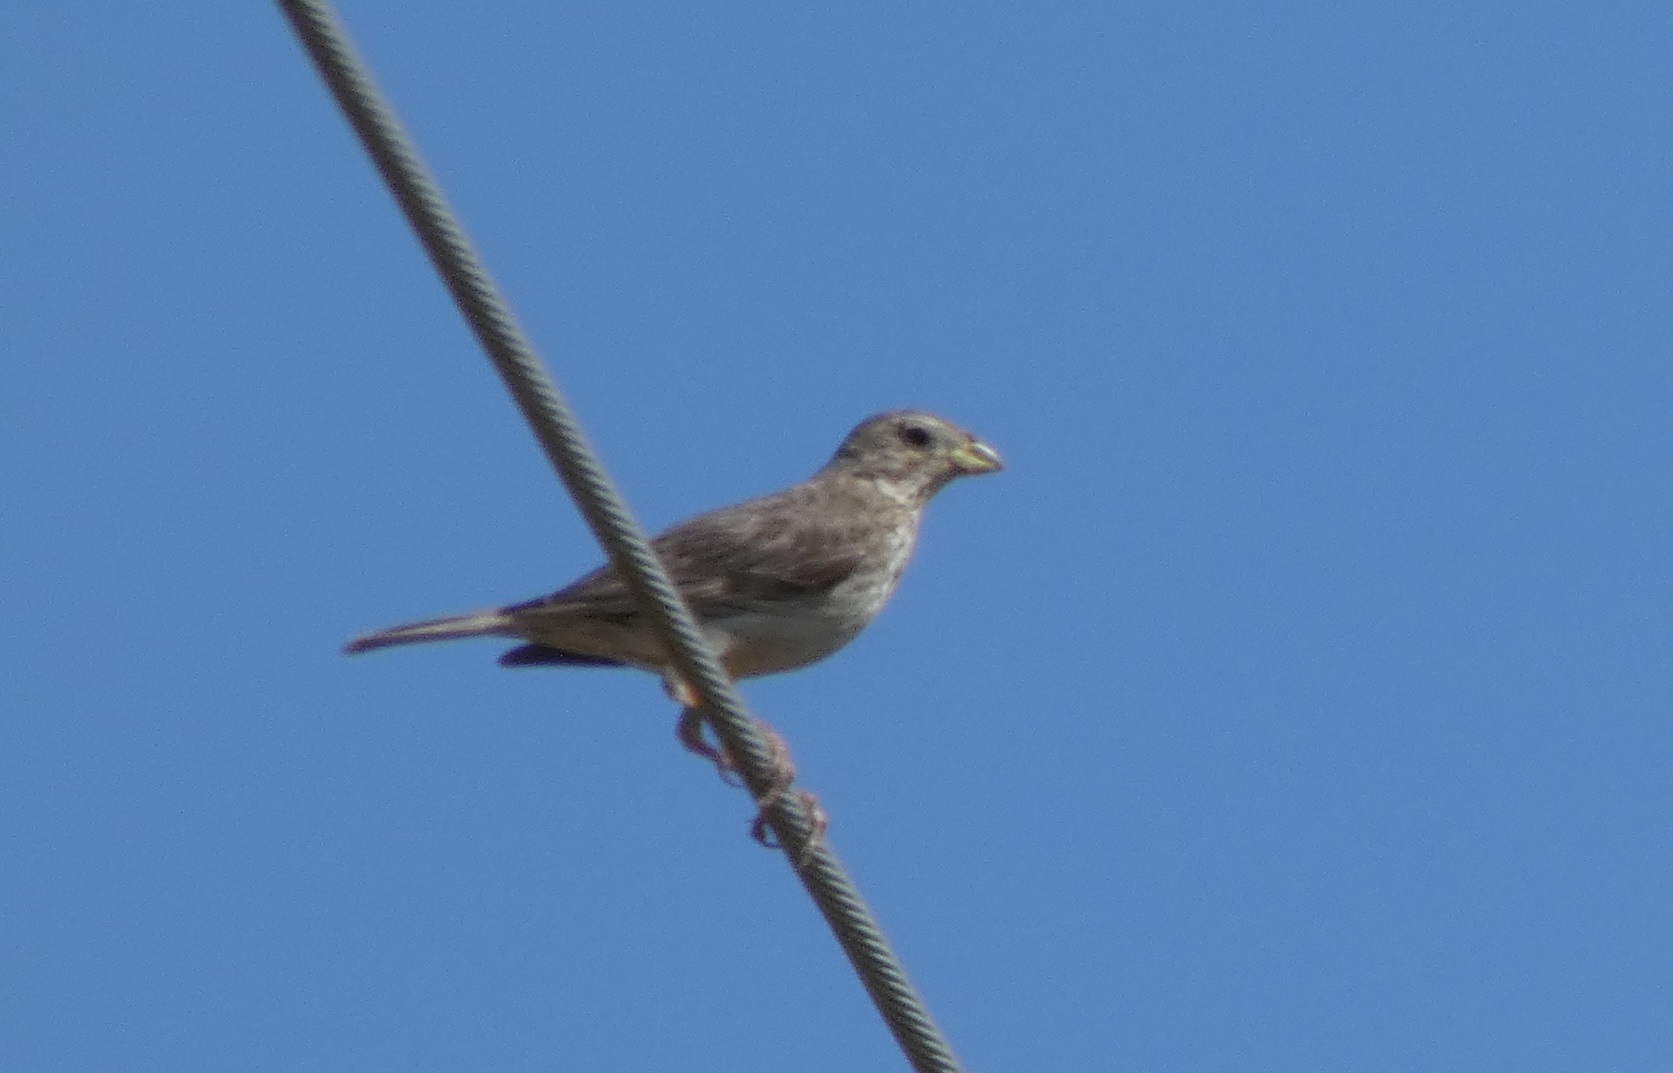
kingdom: Animalia
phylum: Chordata
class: Aves
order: Passeriformes
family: Emberizidae
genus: Emberiza
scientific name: Emberiza calandra
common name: Corn bunting
